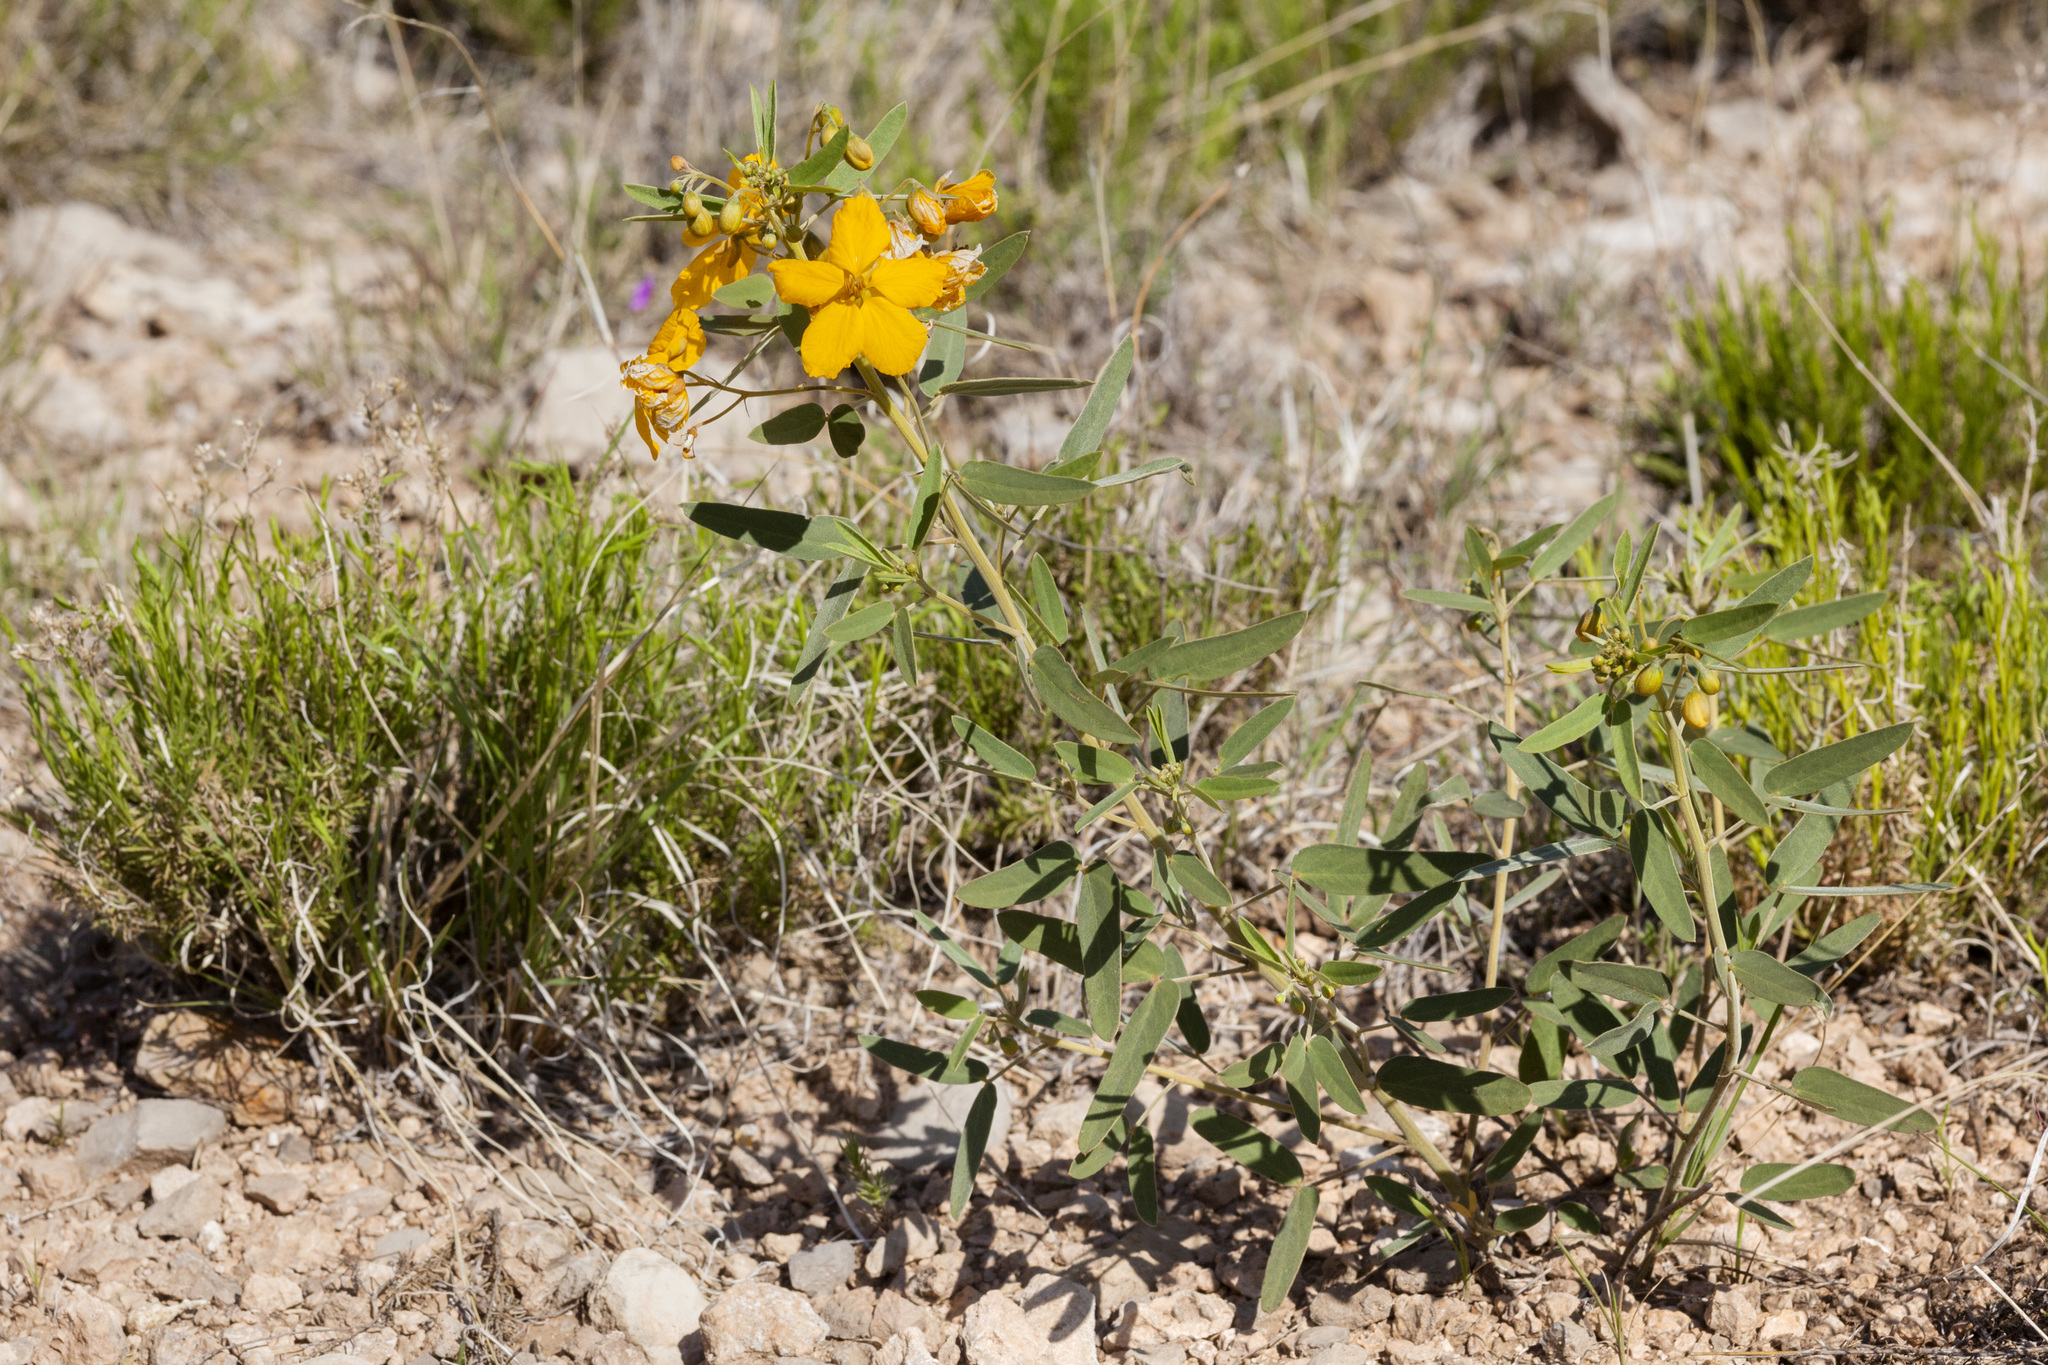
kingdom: Plantae
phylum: Tracheophyta
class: Magnoliopsida
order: Fabales
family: Fabaceae
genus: Senna
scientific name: Senna roemeriana
